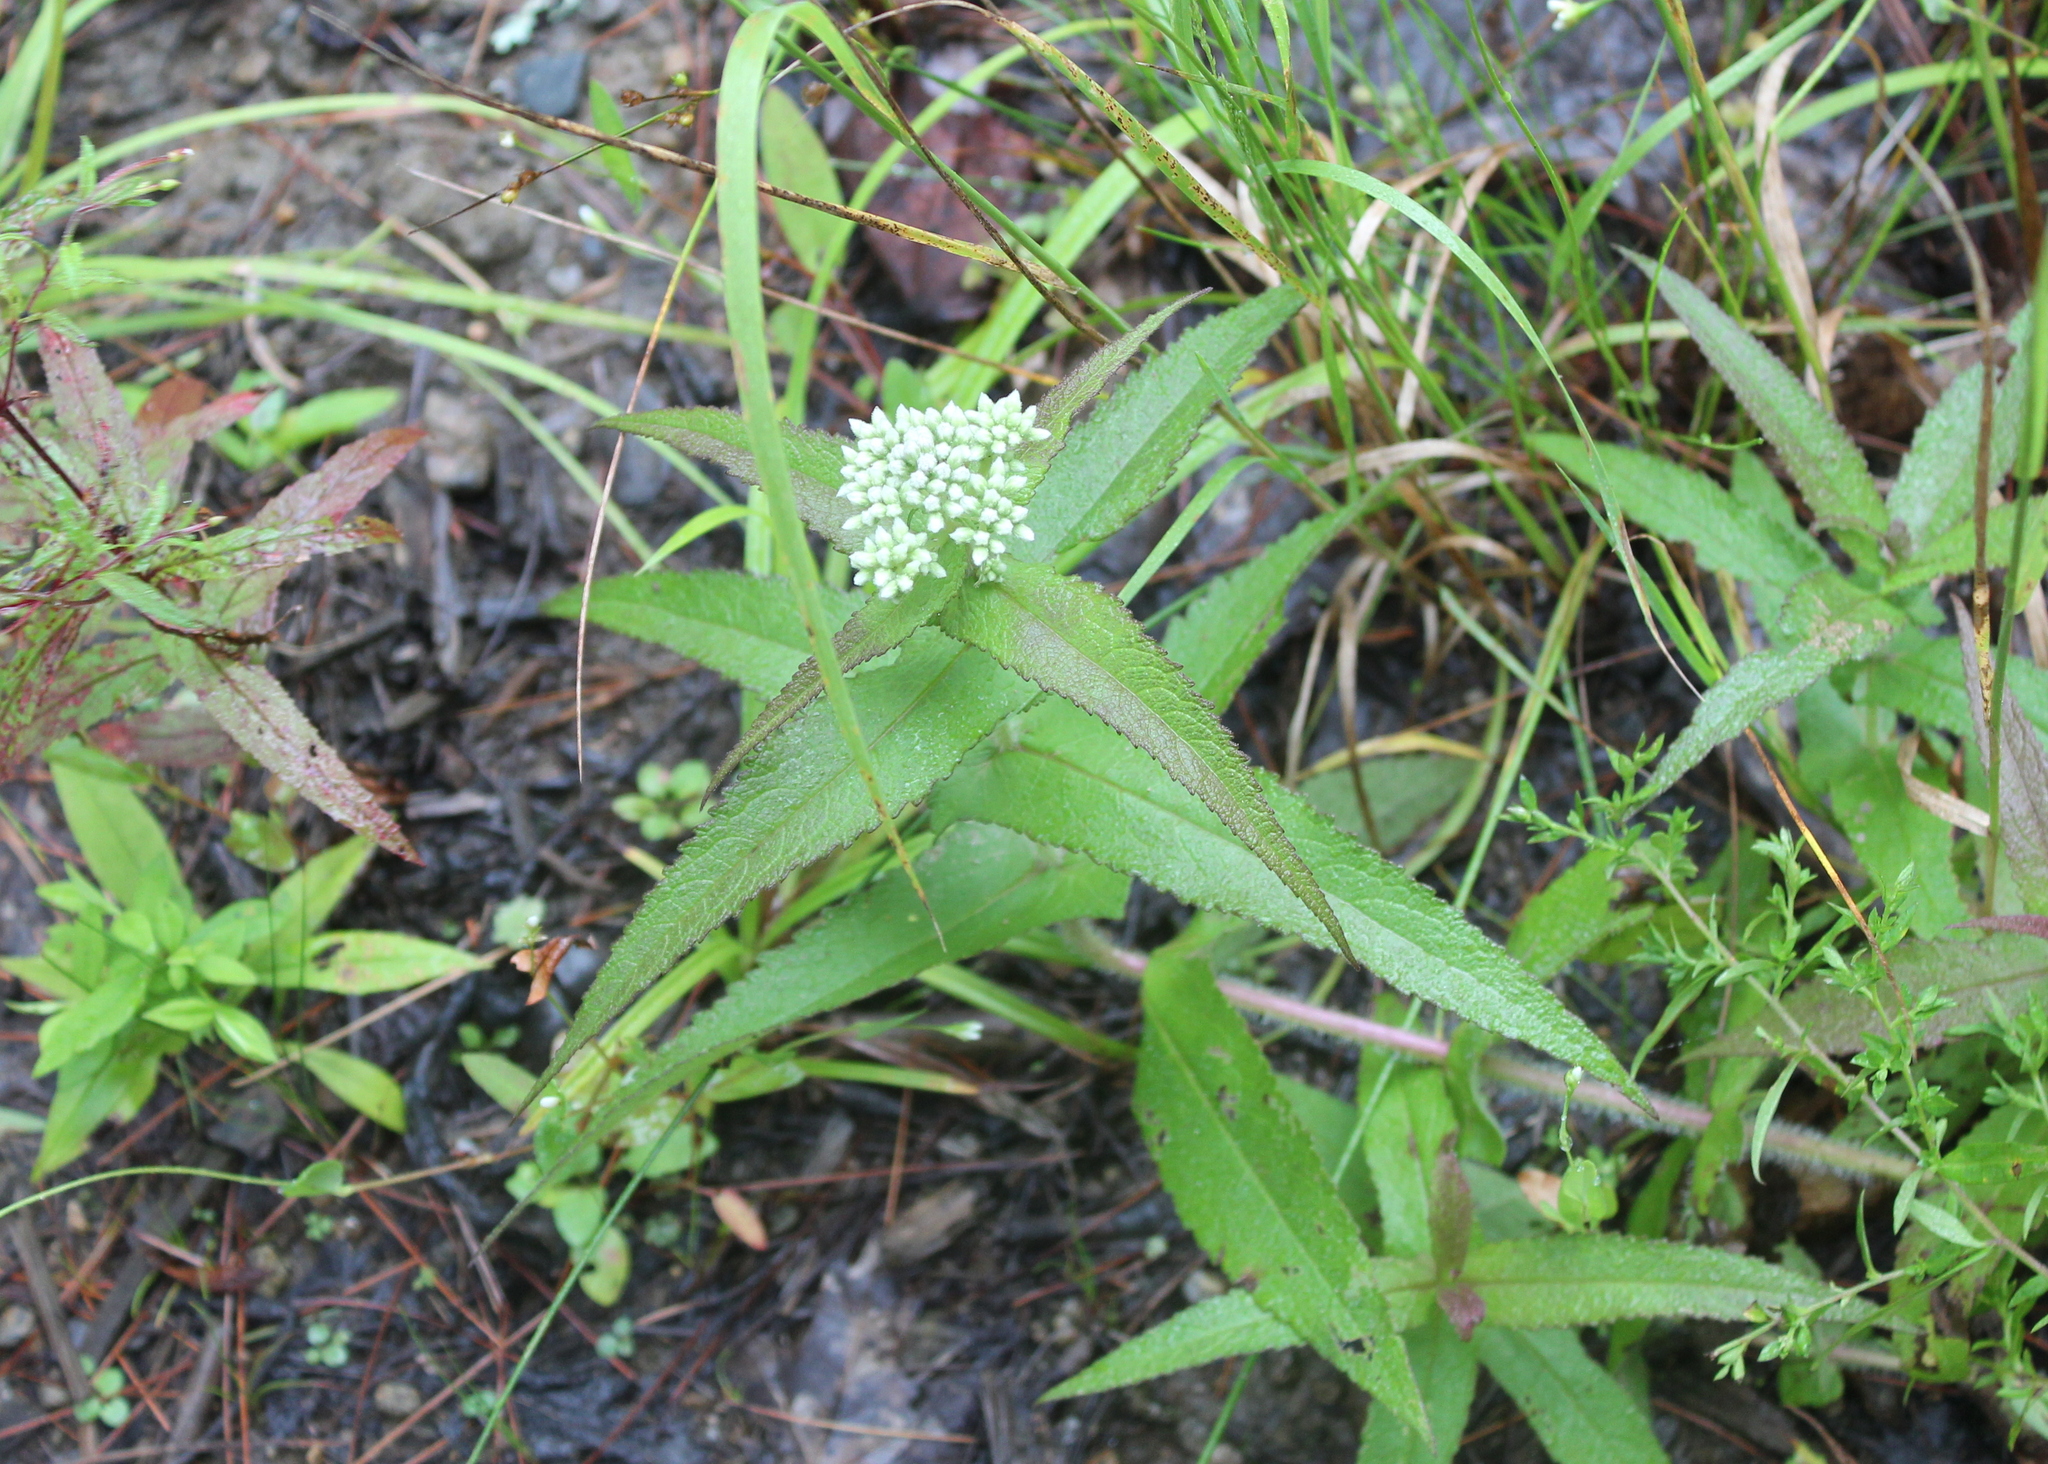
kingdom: Plantae
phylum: Tracheophyta
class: Magnoliopsida
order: Asterales
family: Asteraceae
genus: Eupatorium
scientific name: Eupatorium perfoliatum
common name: Boneset
